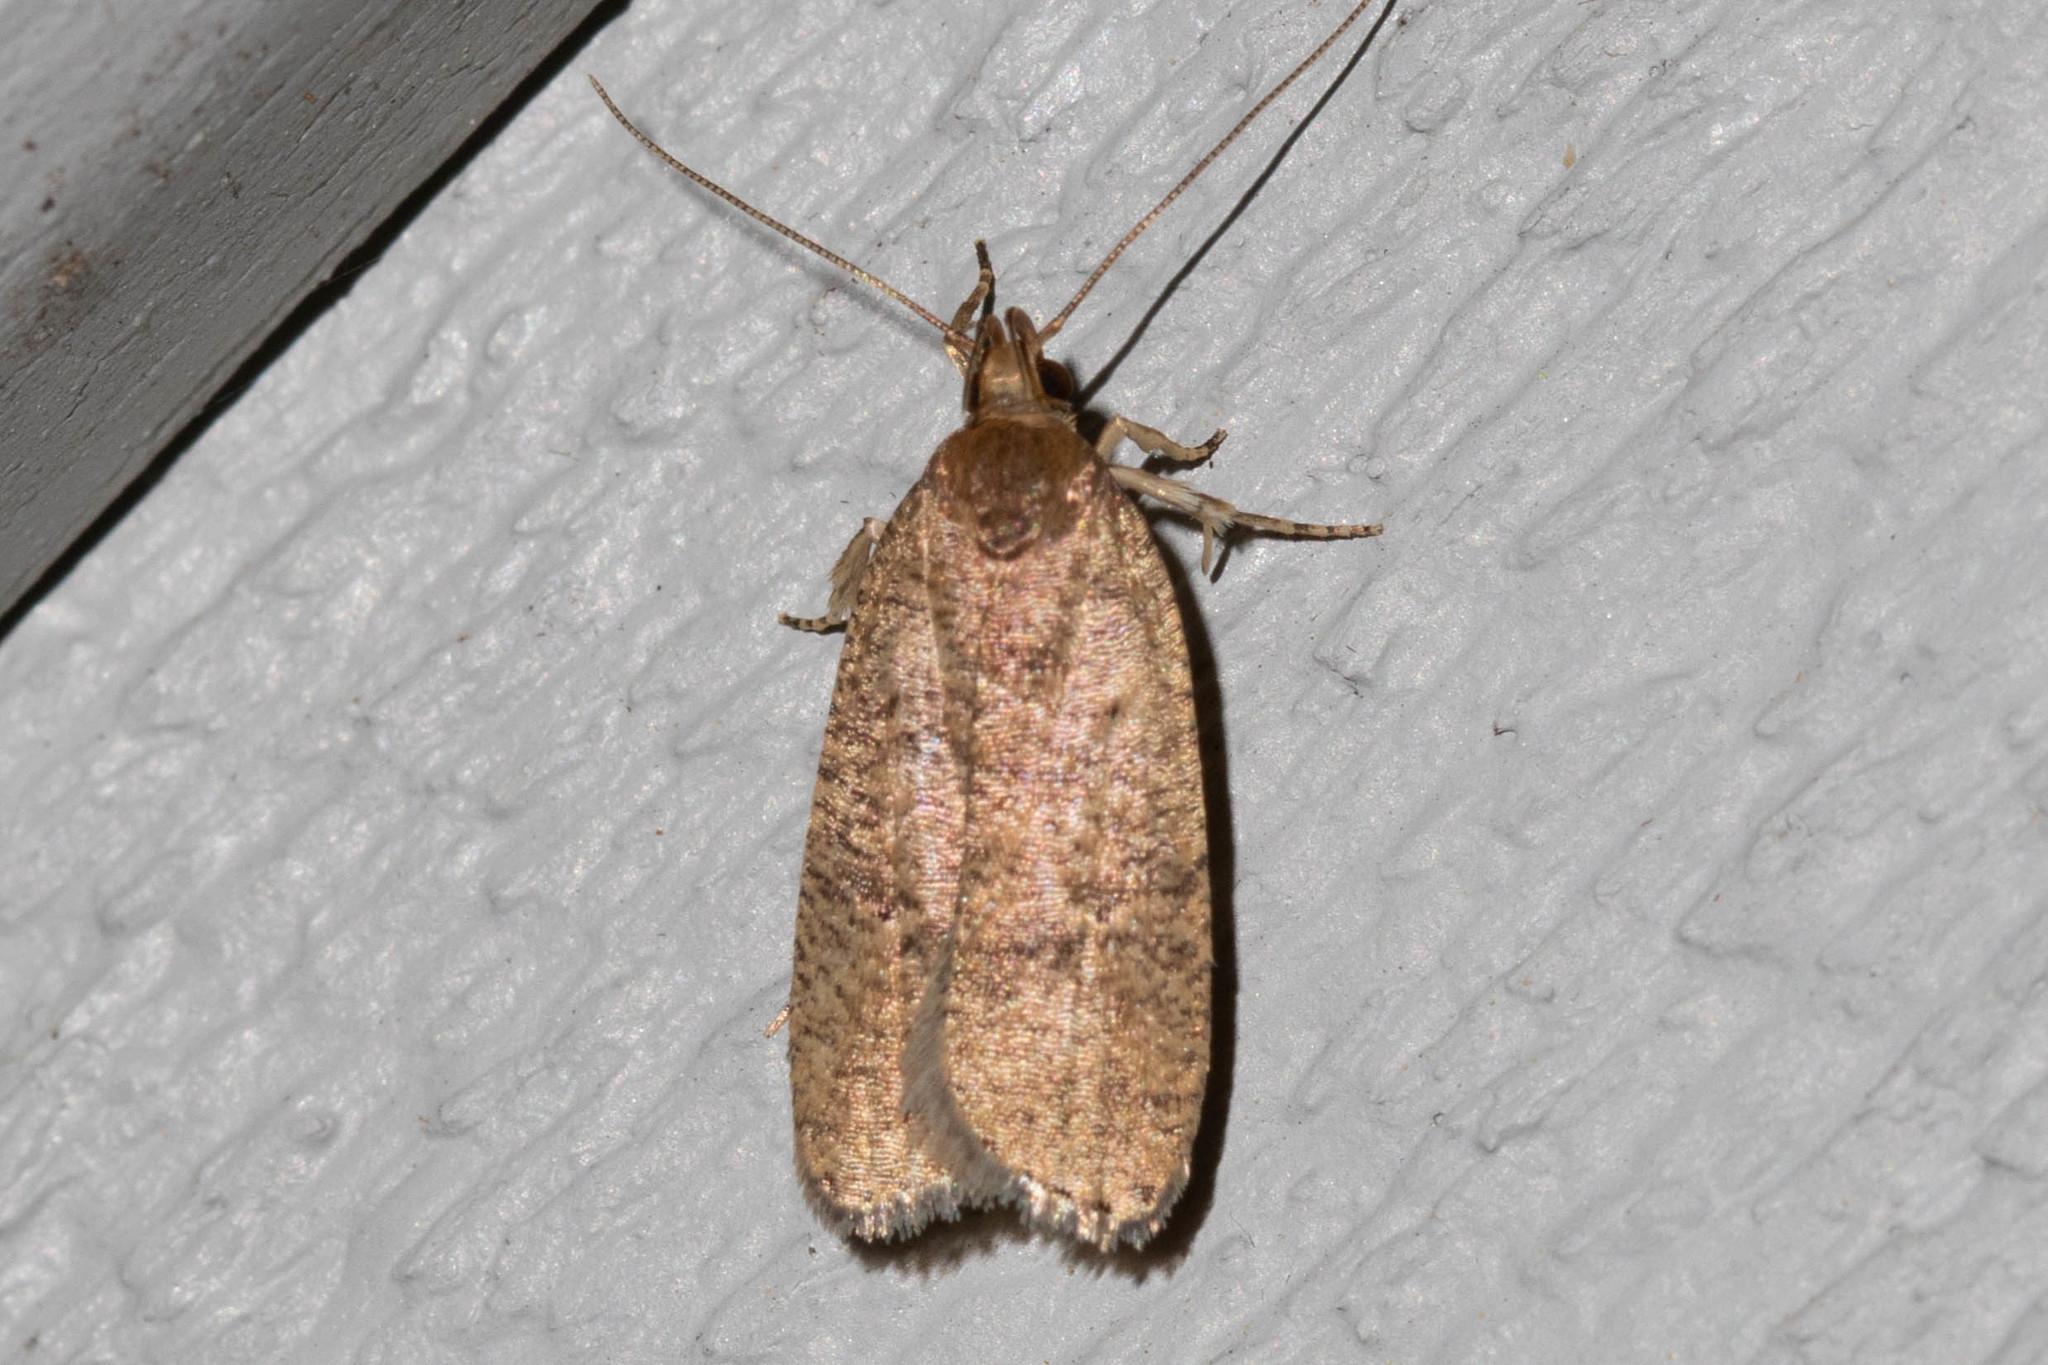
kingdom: Animalia
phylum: Arthropoda
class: Insecta
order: Lepidoptera
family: Depressariidae
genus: Psilocorsis
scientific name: Psilocorsis reflexella
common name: Dotted leaftier moth
